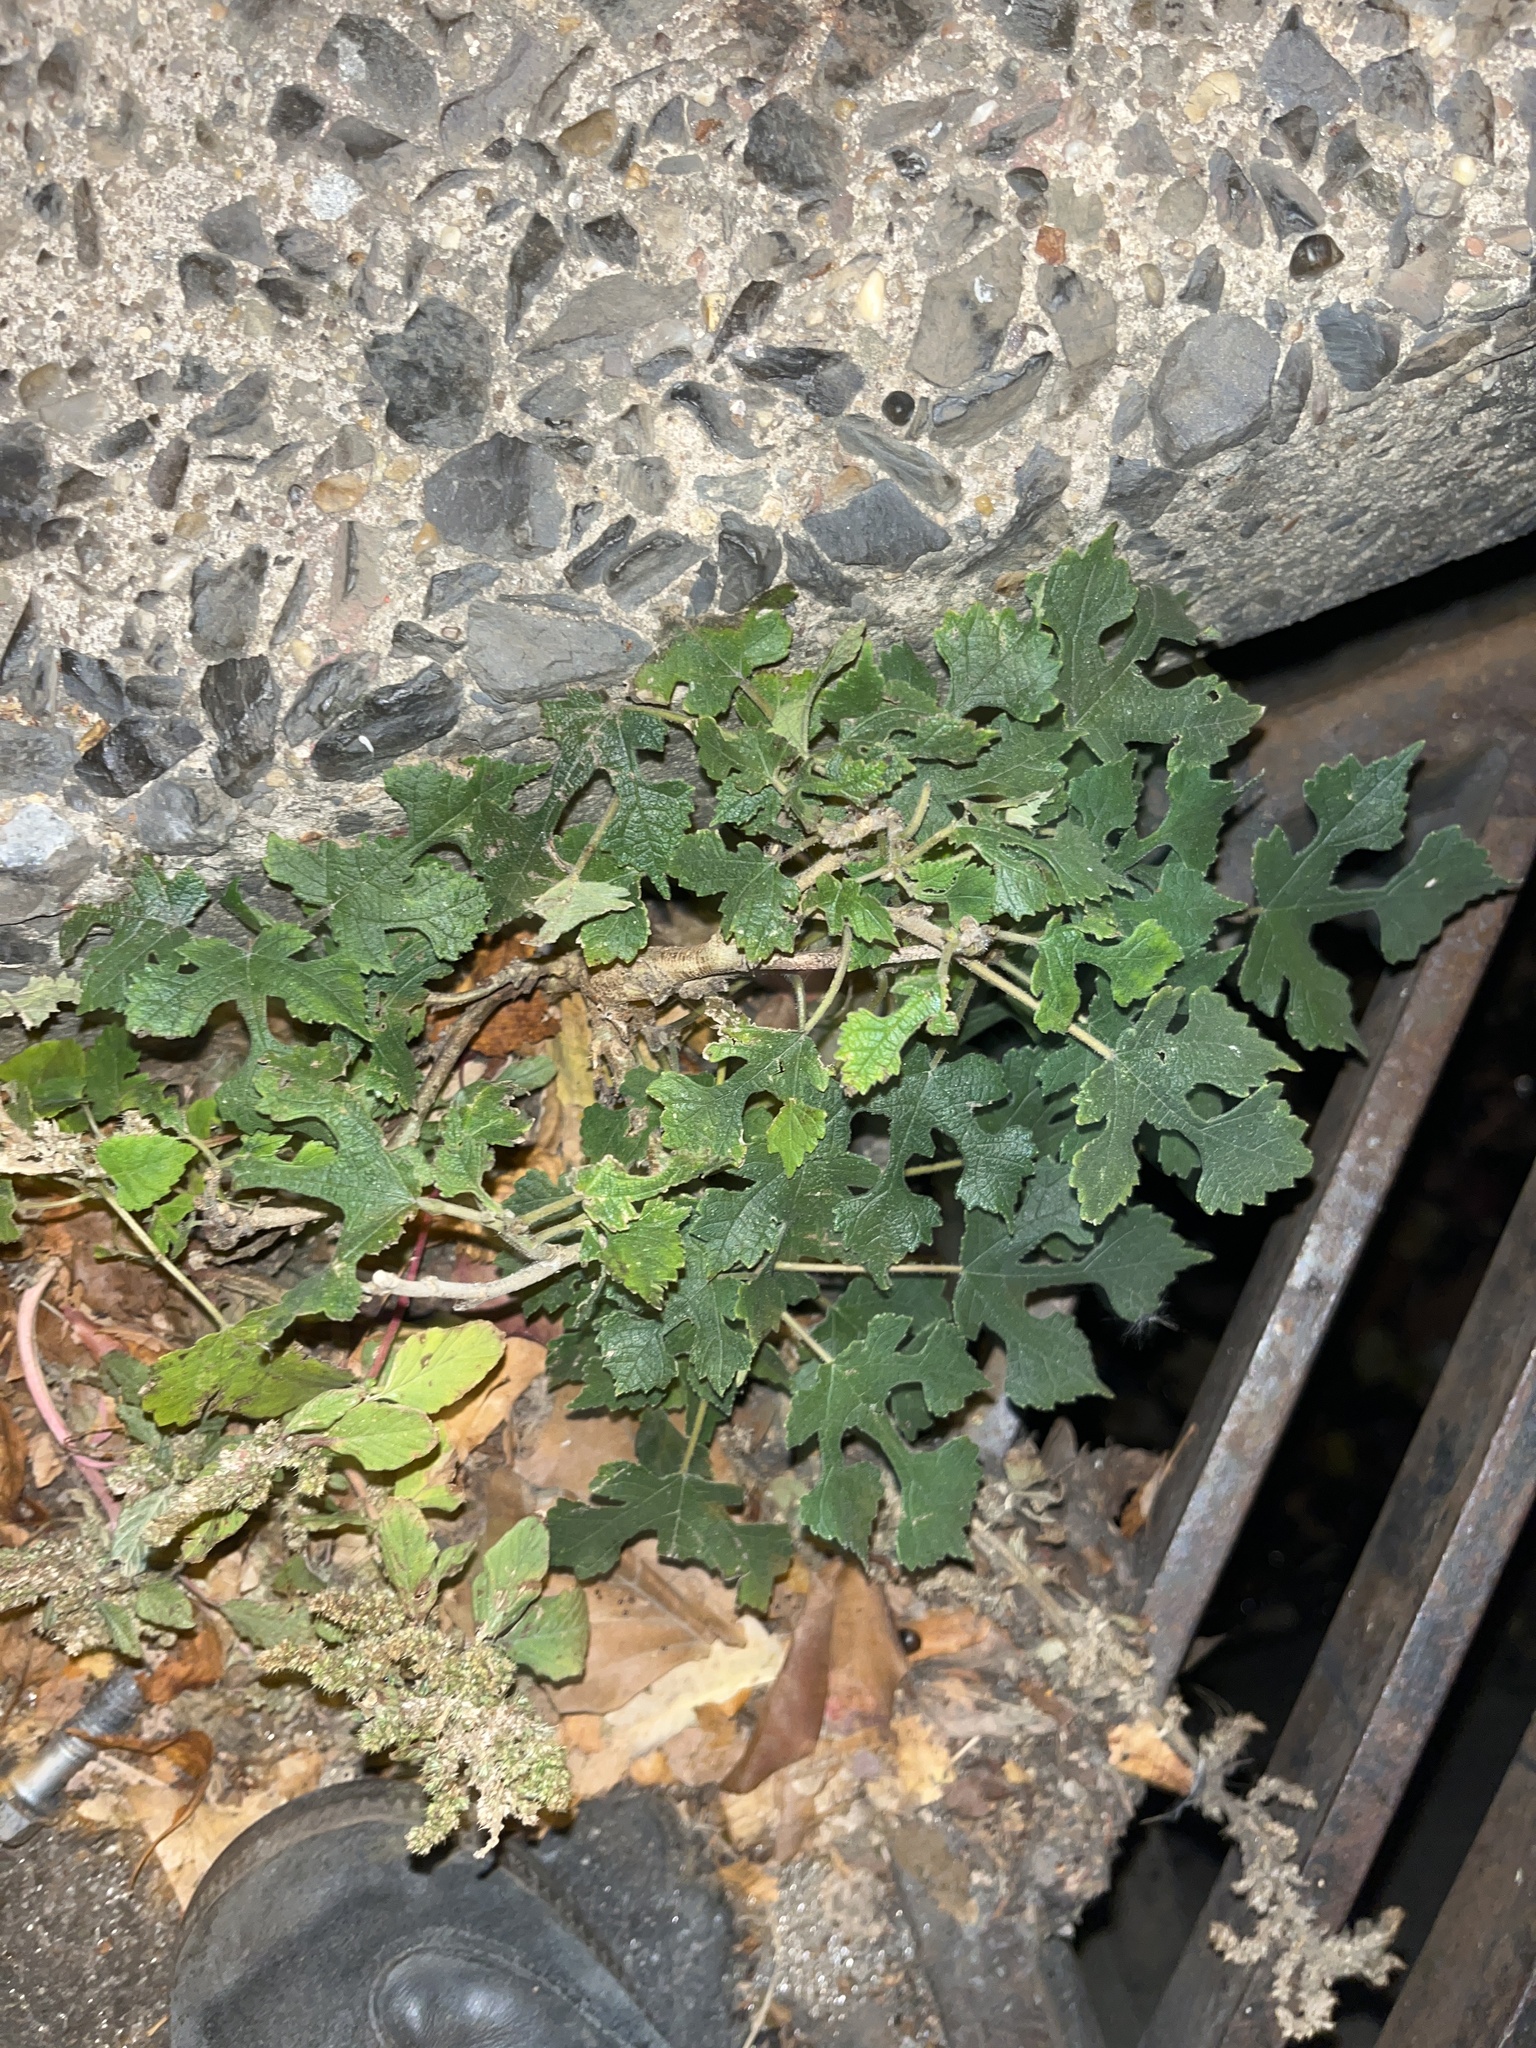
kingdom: Plantae
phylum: Tracheophyta
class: Magnoliopsida
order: Rosales
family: Moraceae
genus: Broussonetia
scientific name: Broussonetia papyrifera
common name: Paper mulberry
